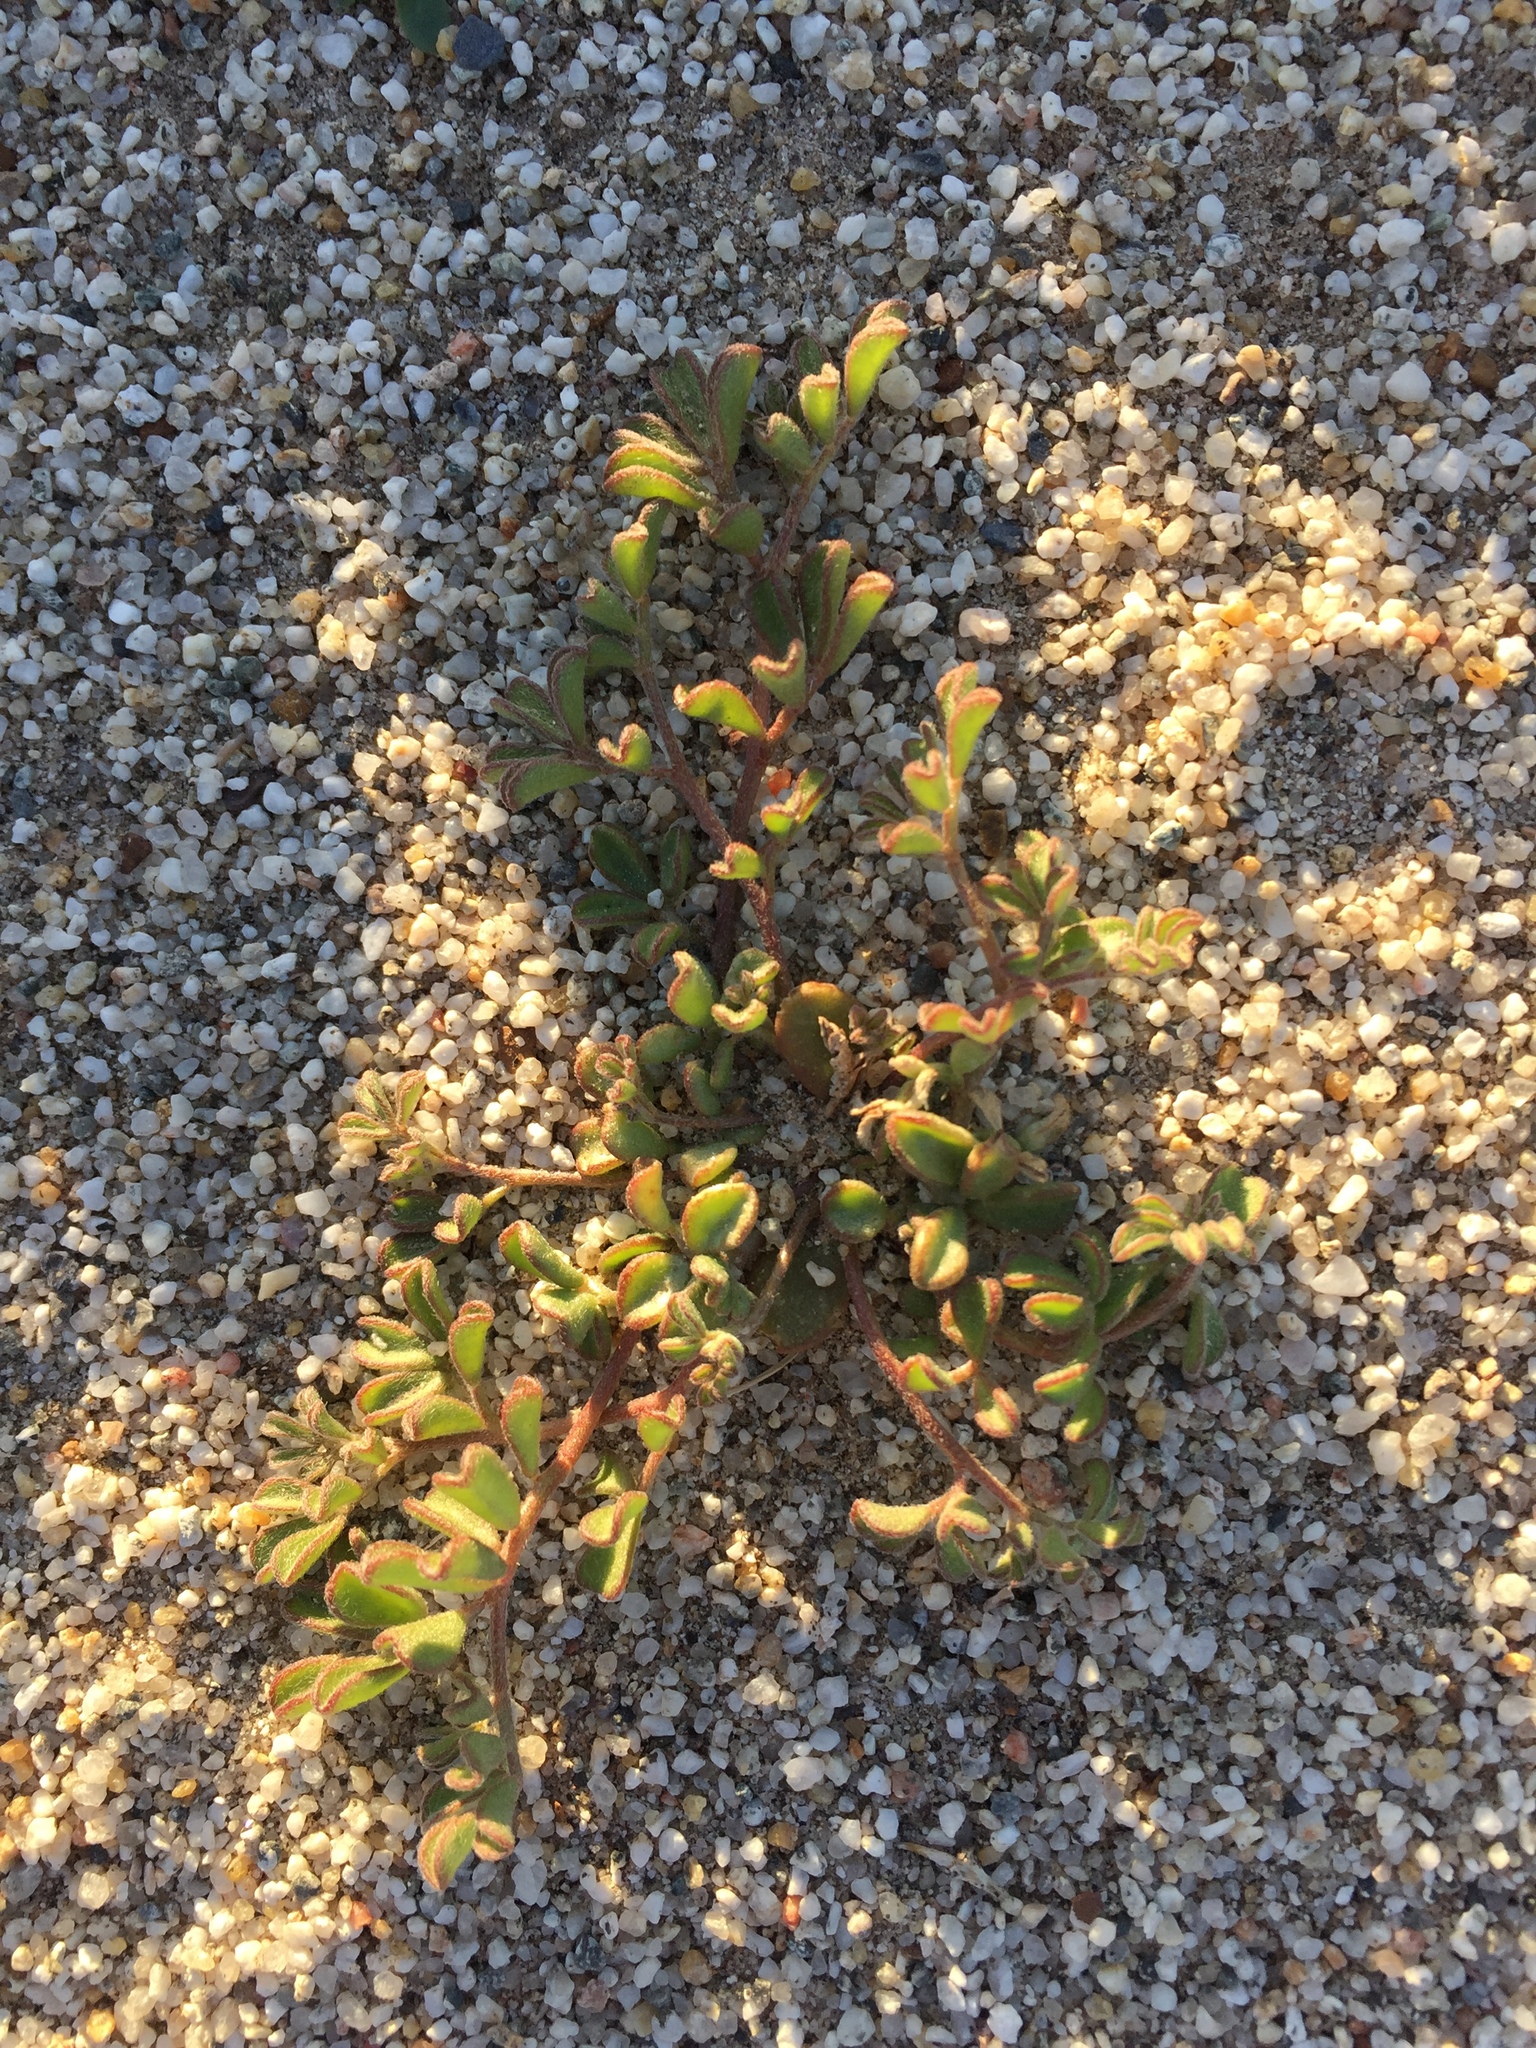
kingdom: Plantae
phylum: Tracheophyta
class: Magnoliopsida
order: Fabales
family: Fabaceae
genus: Acmispon
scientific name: Acmispon strigosus
